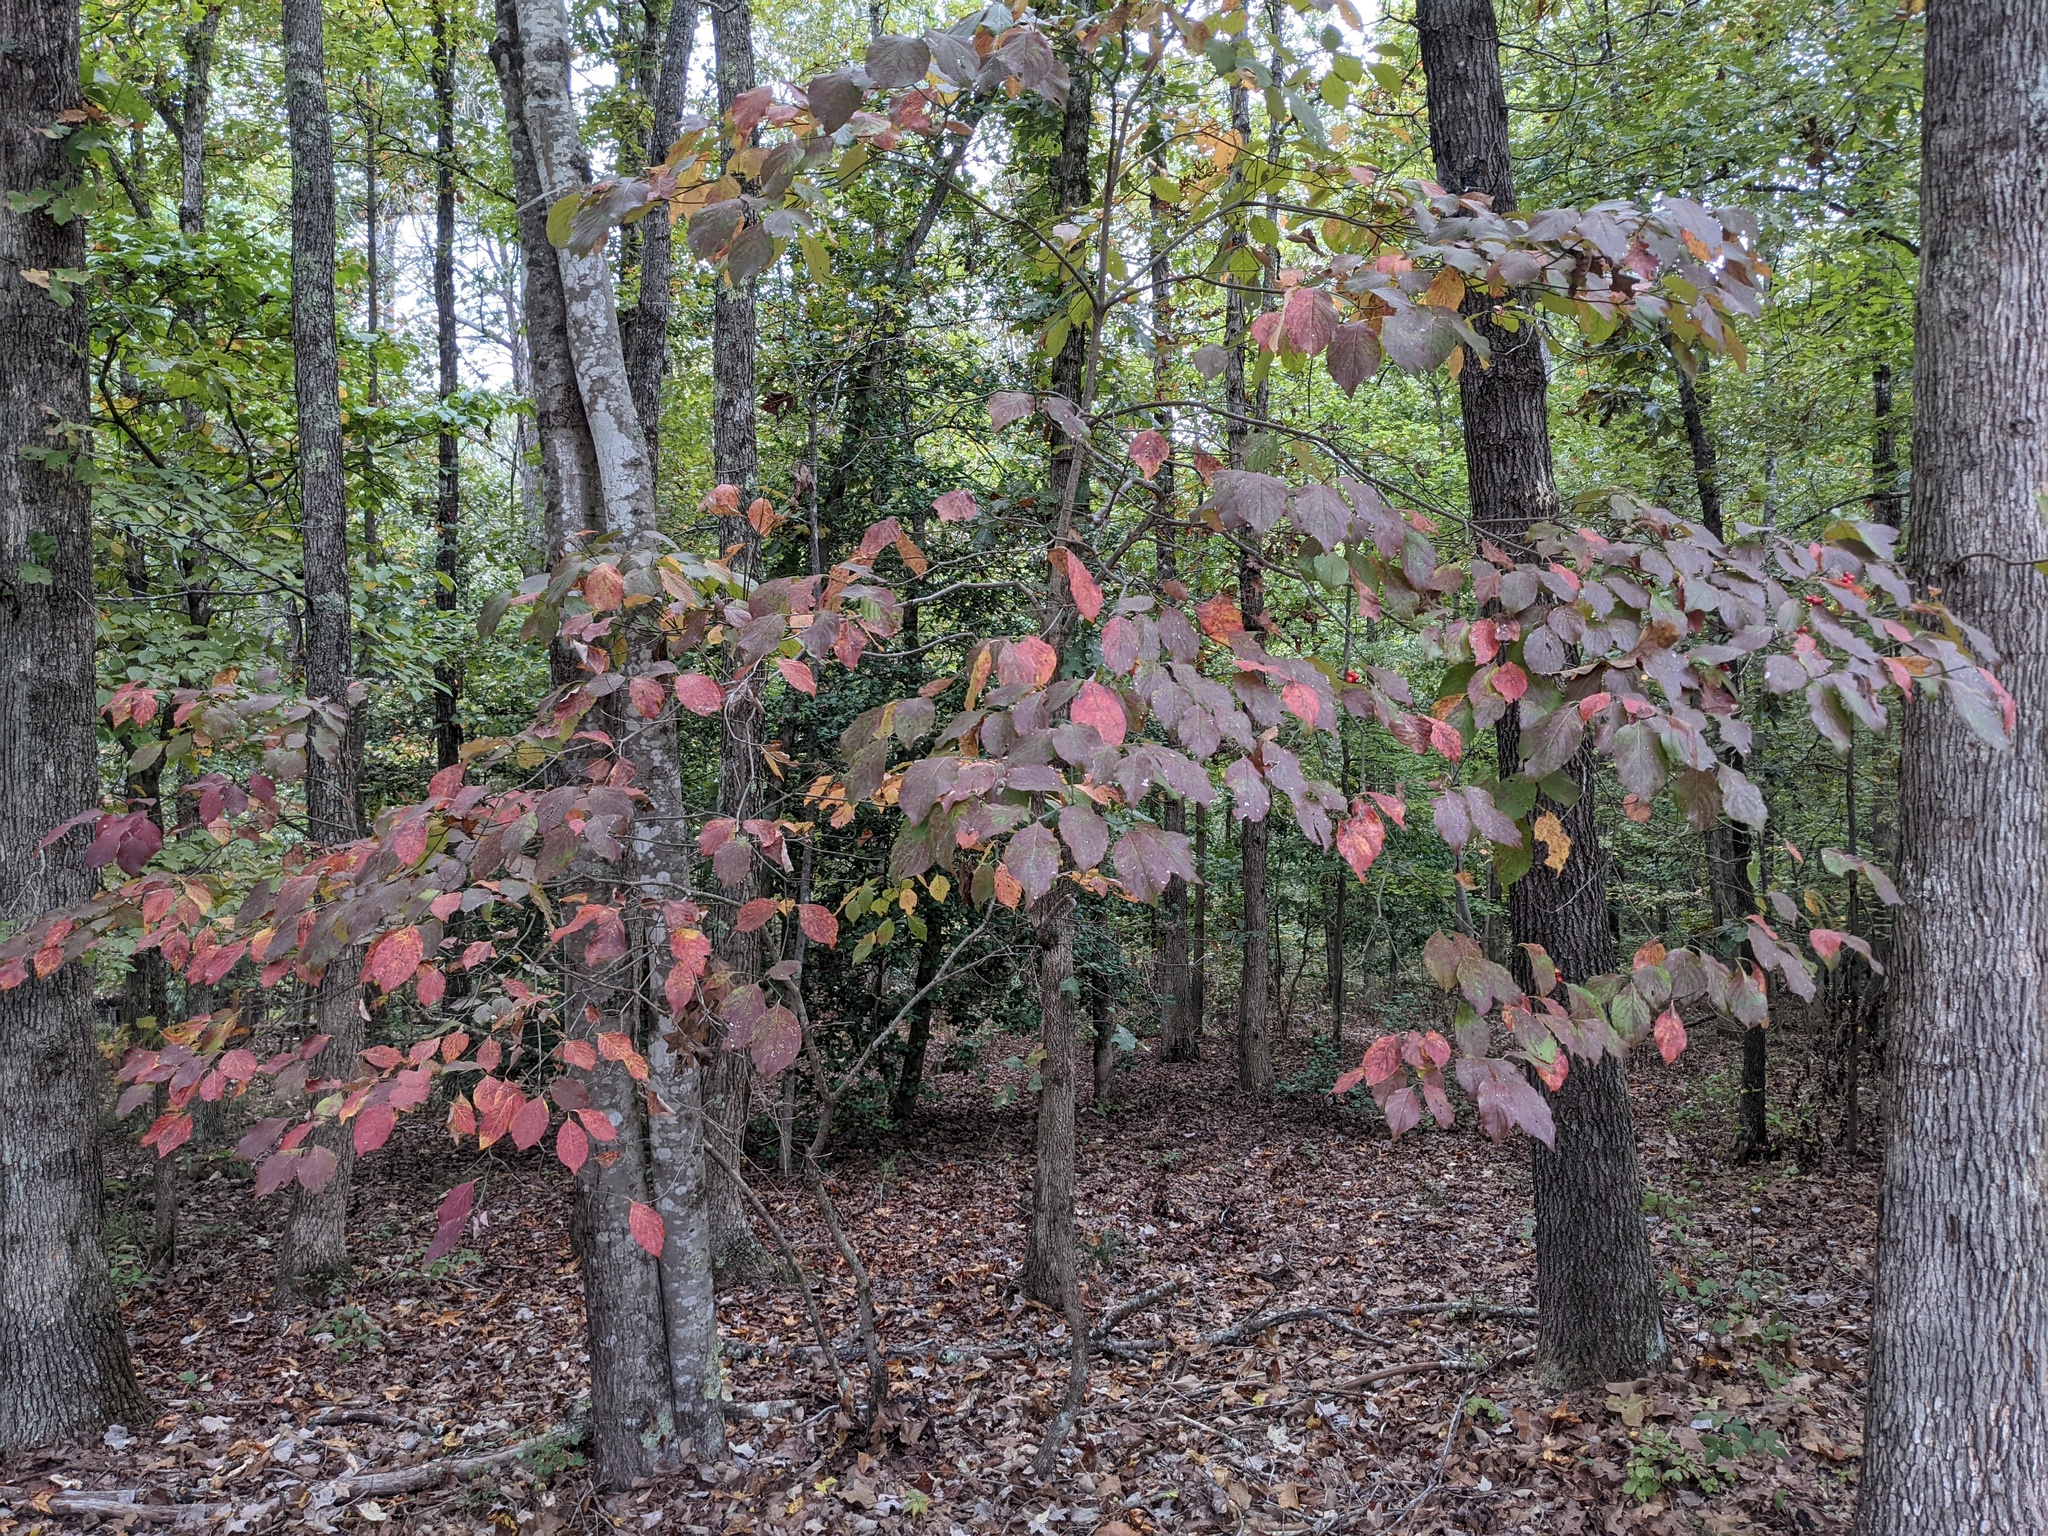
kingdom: Plantae
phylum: Tracheophyta
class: Magnoliopsida
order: Cornales
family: Cornaceae
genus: Cornus
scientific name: Cornus florida
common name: Flowering dogwood
